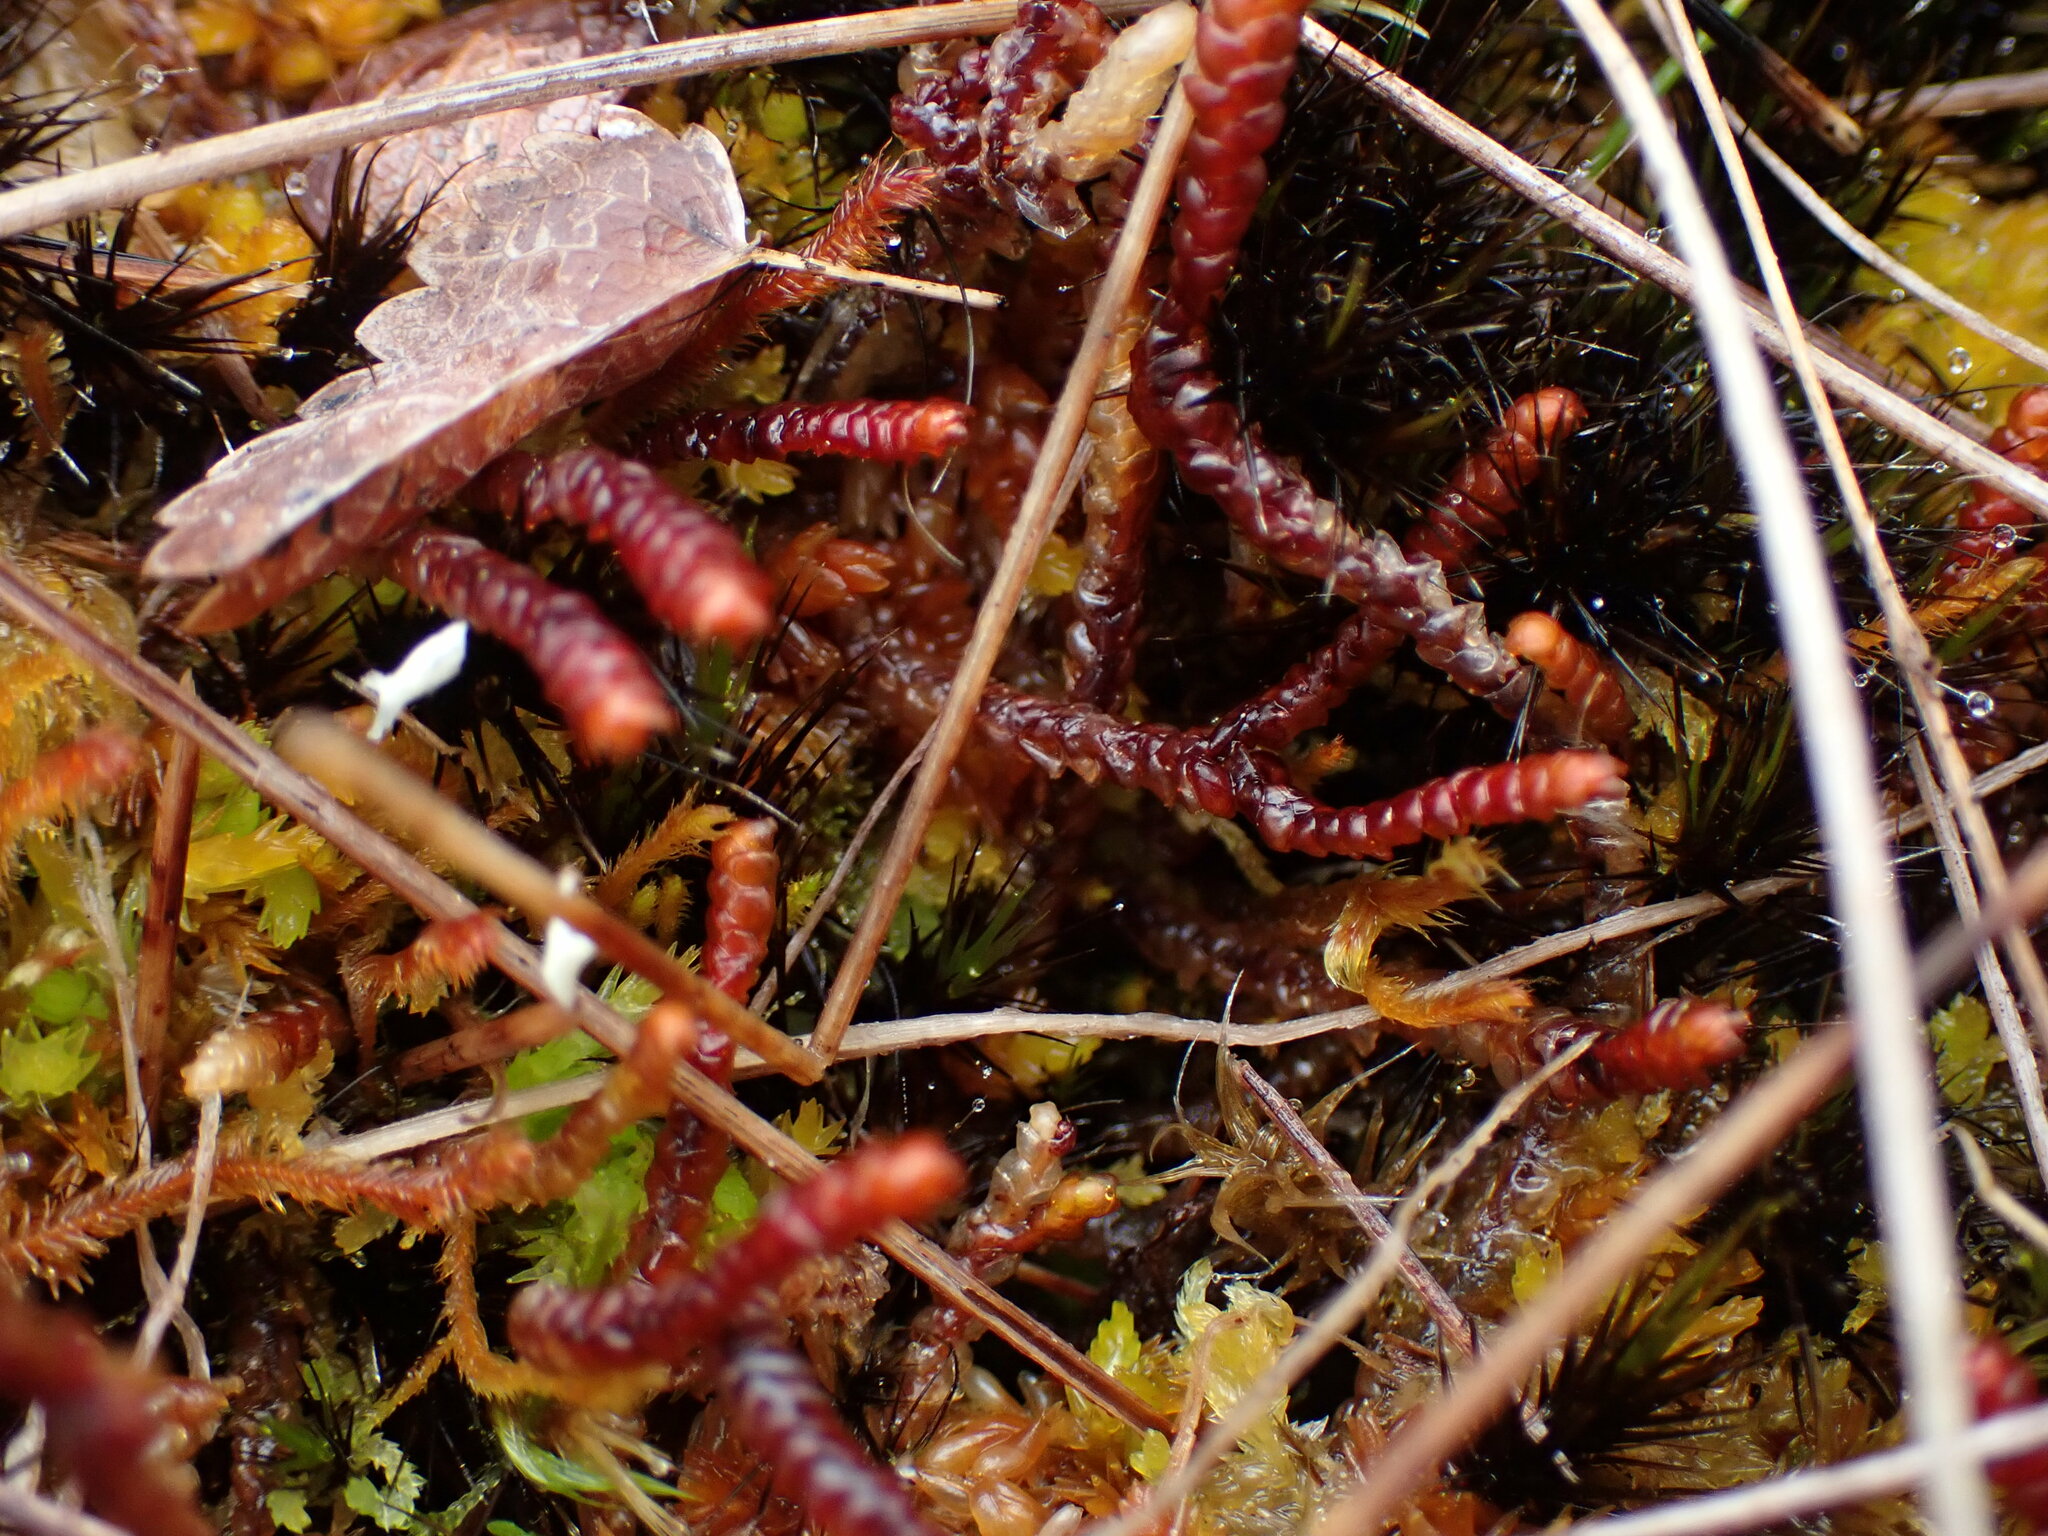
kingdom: Plantae
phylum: Marchantiophyta
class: Jungermanniopsida
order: Pleuroziales
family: Pleuroziaceae
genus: Pleurozia
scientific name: Pleurozia purpurea
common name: Purple spoonwort
